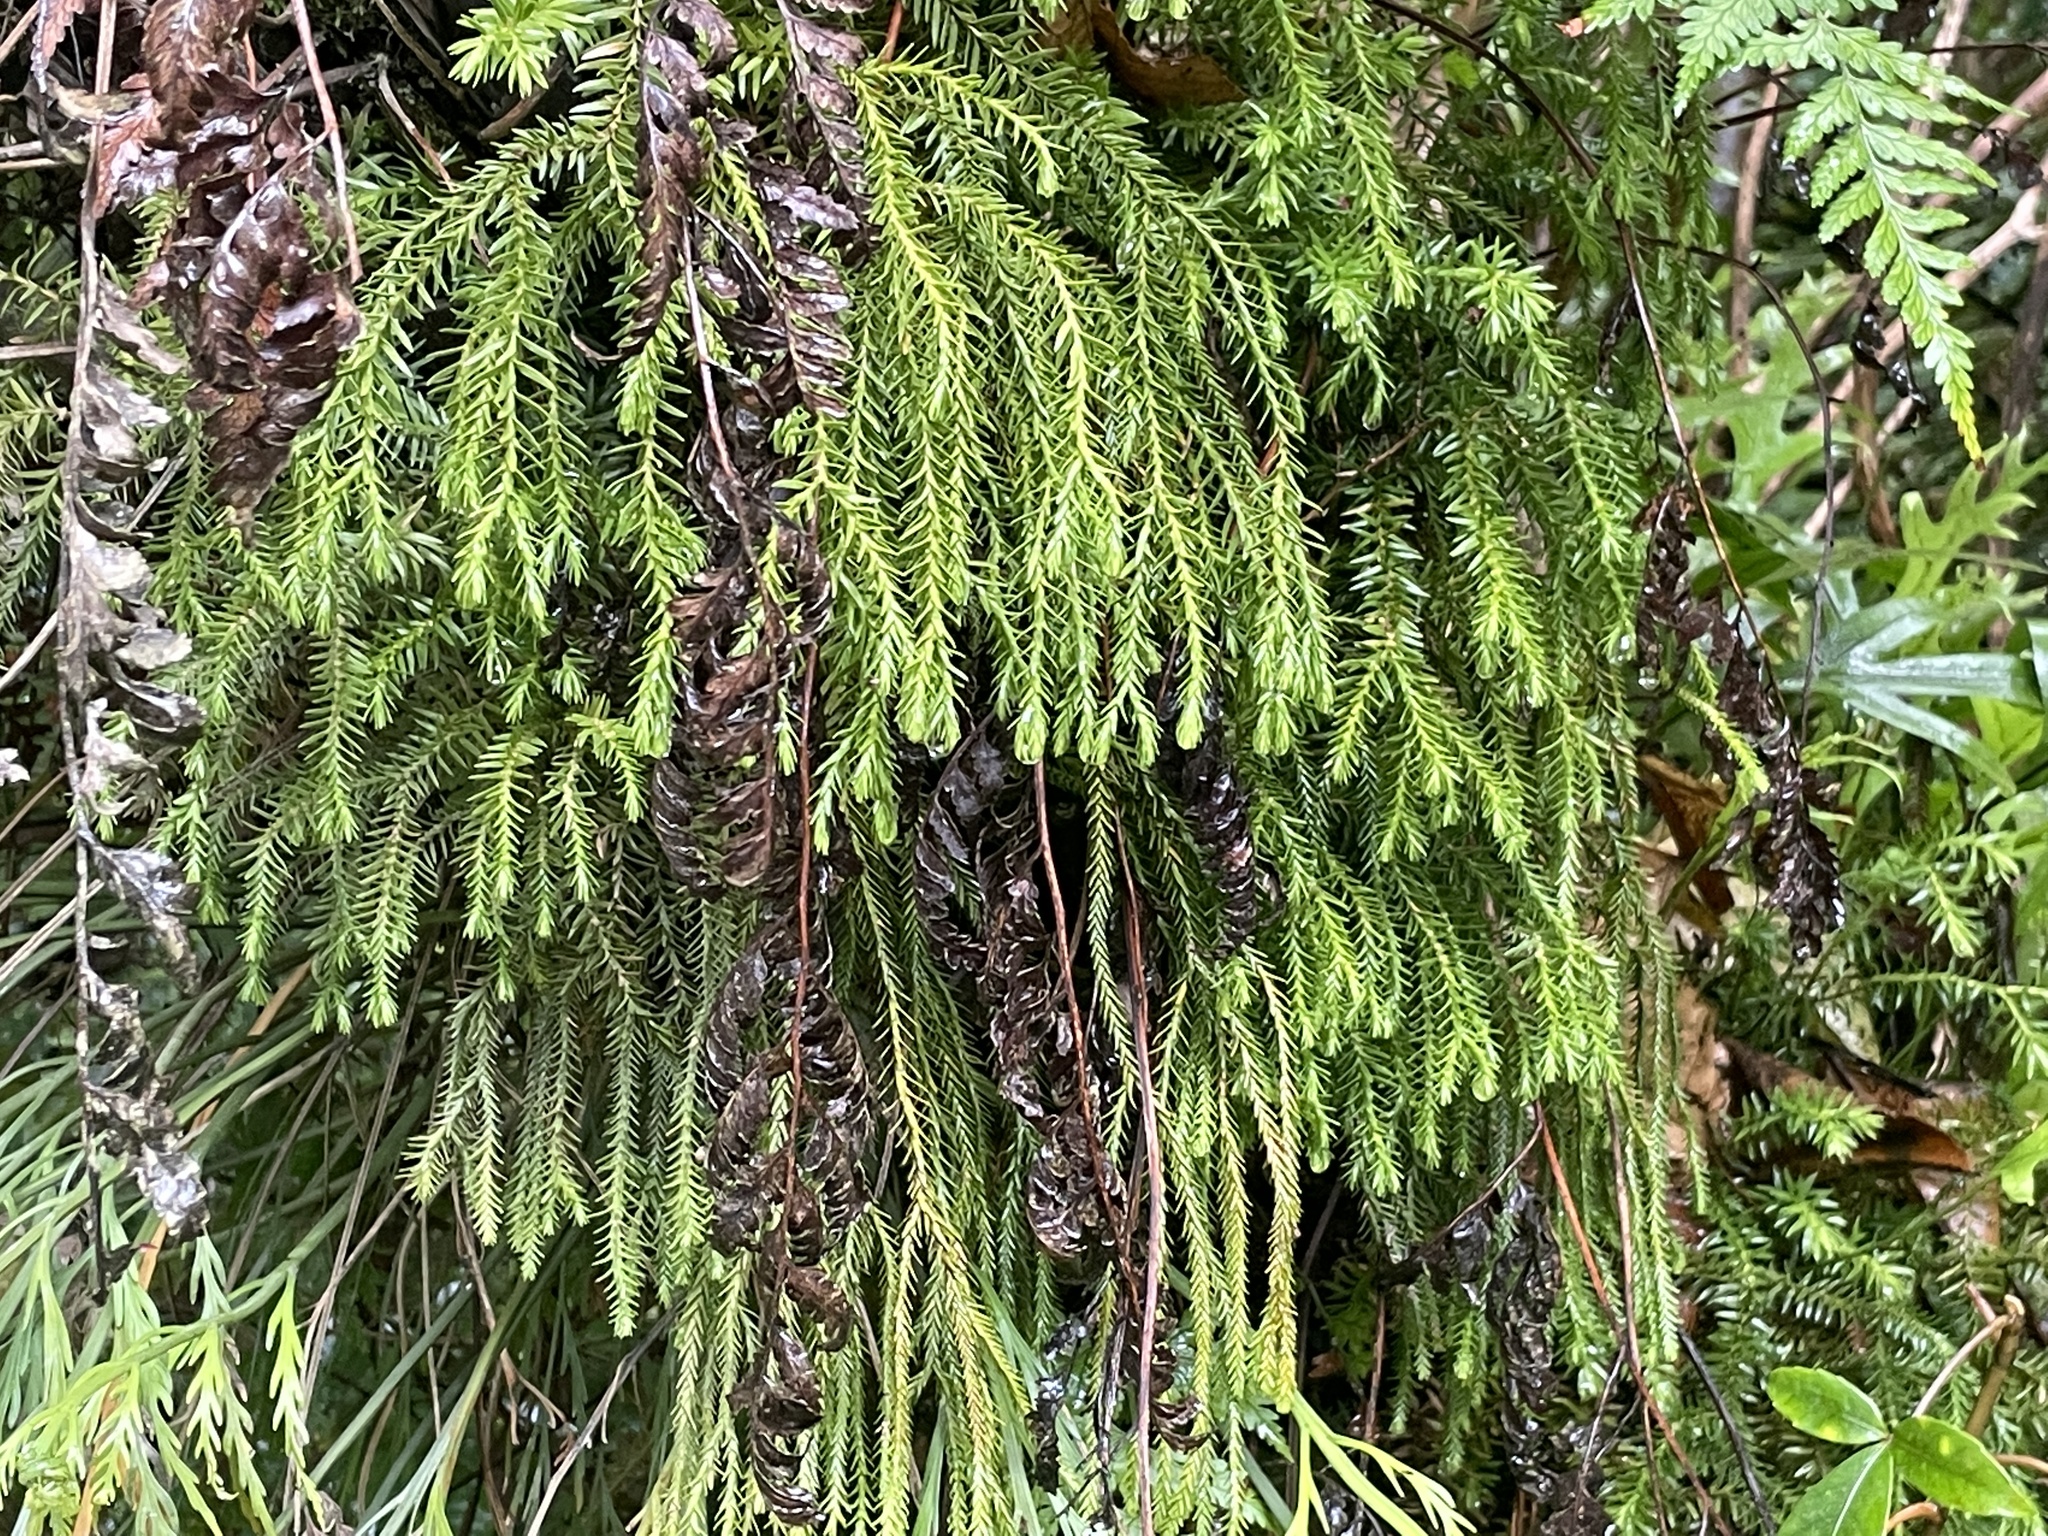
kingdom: Plantae
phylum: Tracheophyta
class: Lycopodiopsida
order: Lycopodiales
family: Lycopodiaceae
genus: Phlegmariurus
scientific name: Phlegmariurus varius
